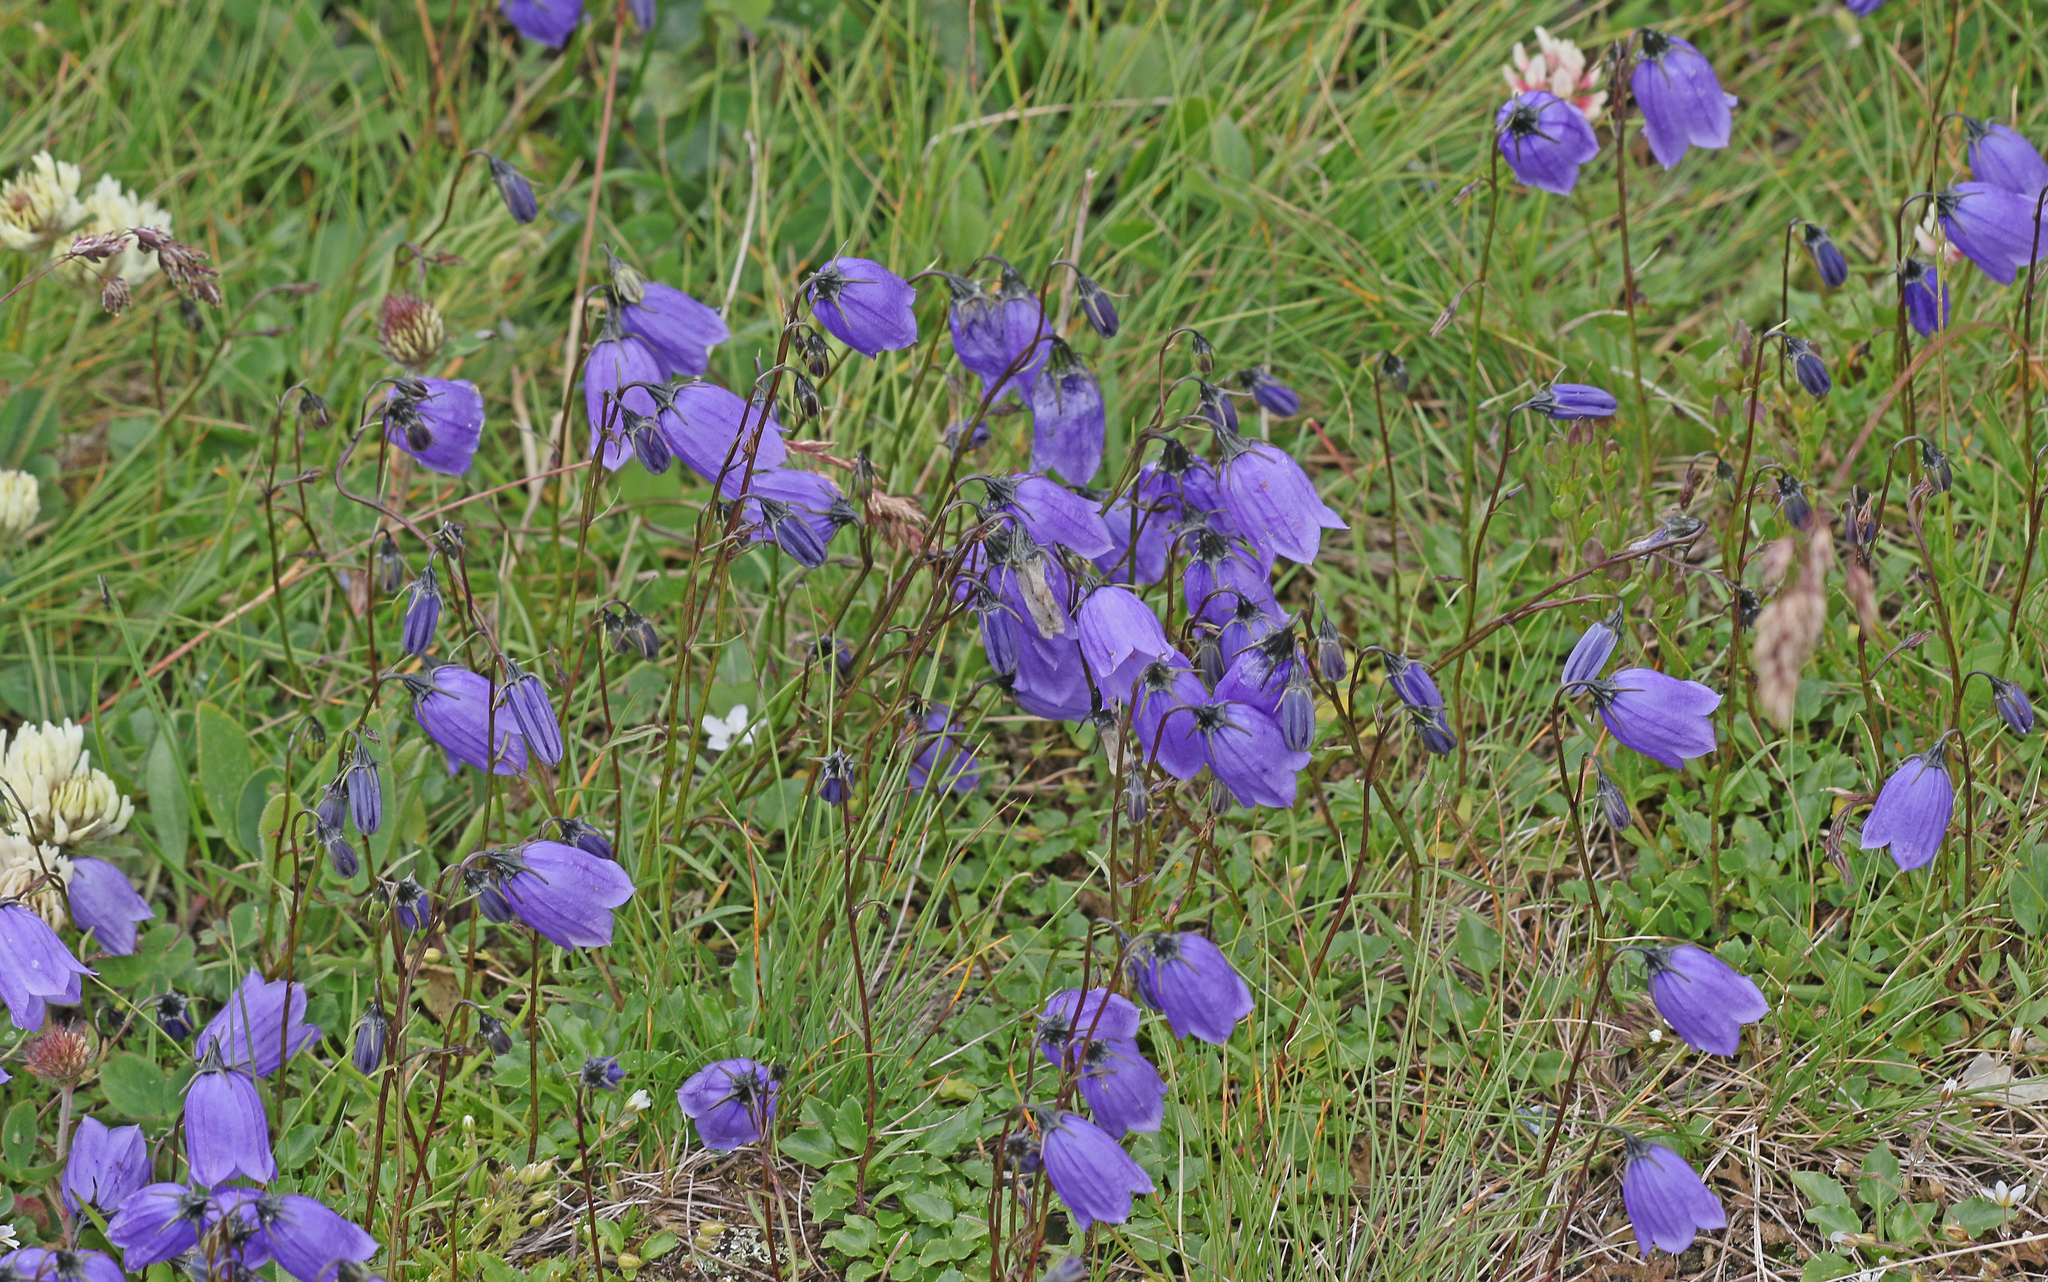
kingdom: Plantae
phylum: Tracheophyta
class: Magnoliopsida
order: Asterales
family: Campanulaceae
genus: Campanula
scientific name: Campanula cochleariifolia
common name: Fairies'-thimbles
